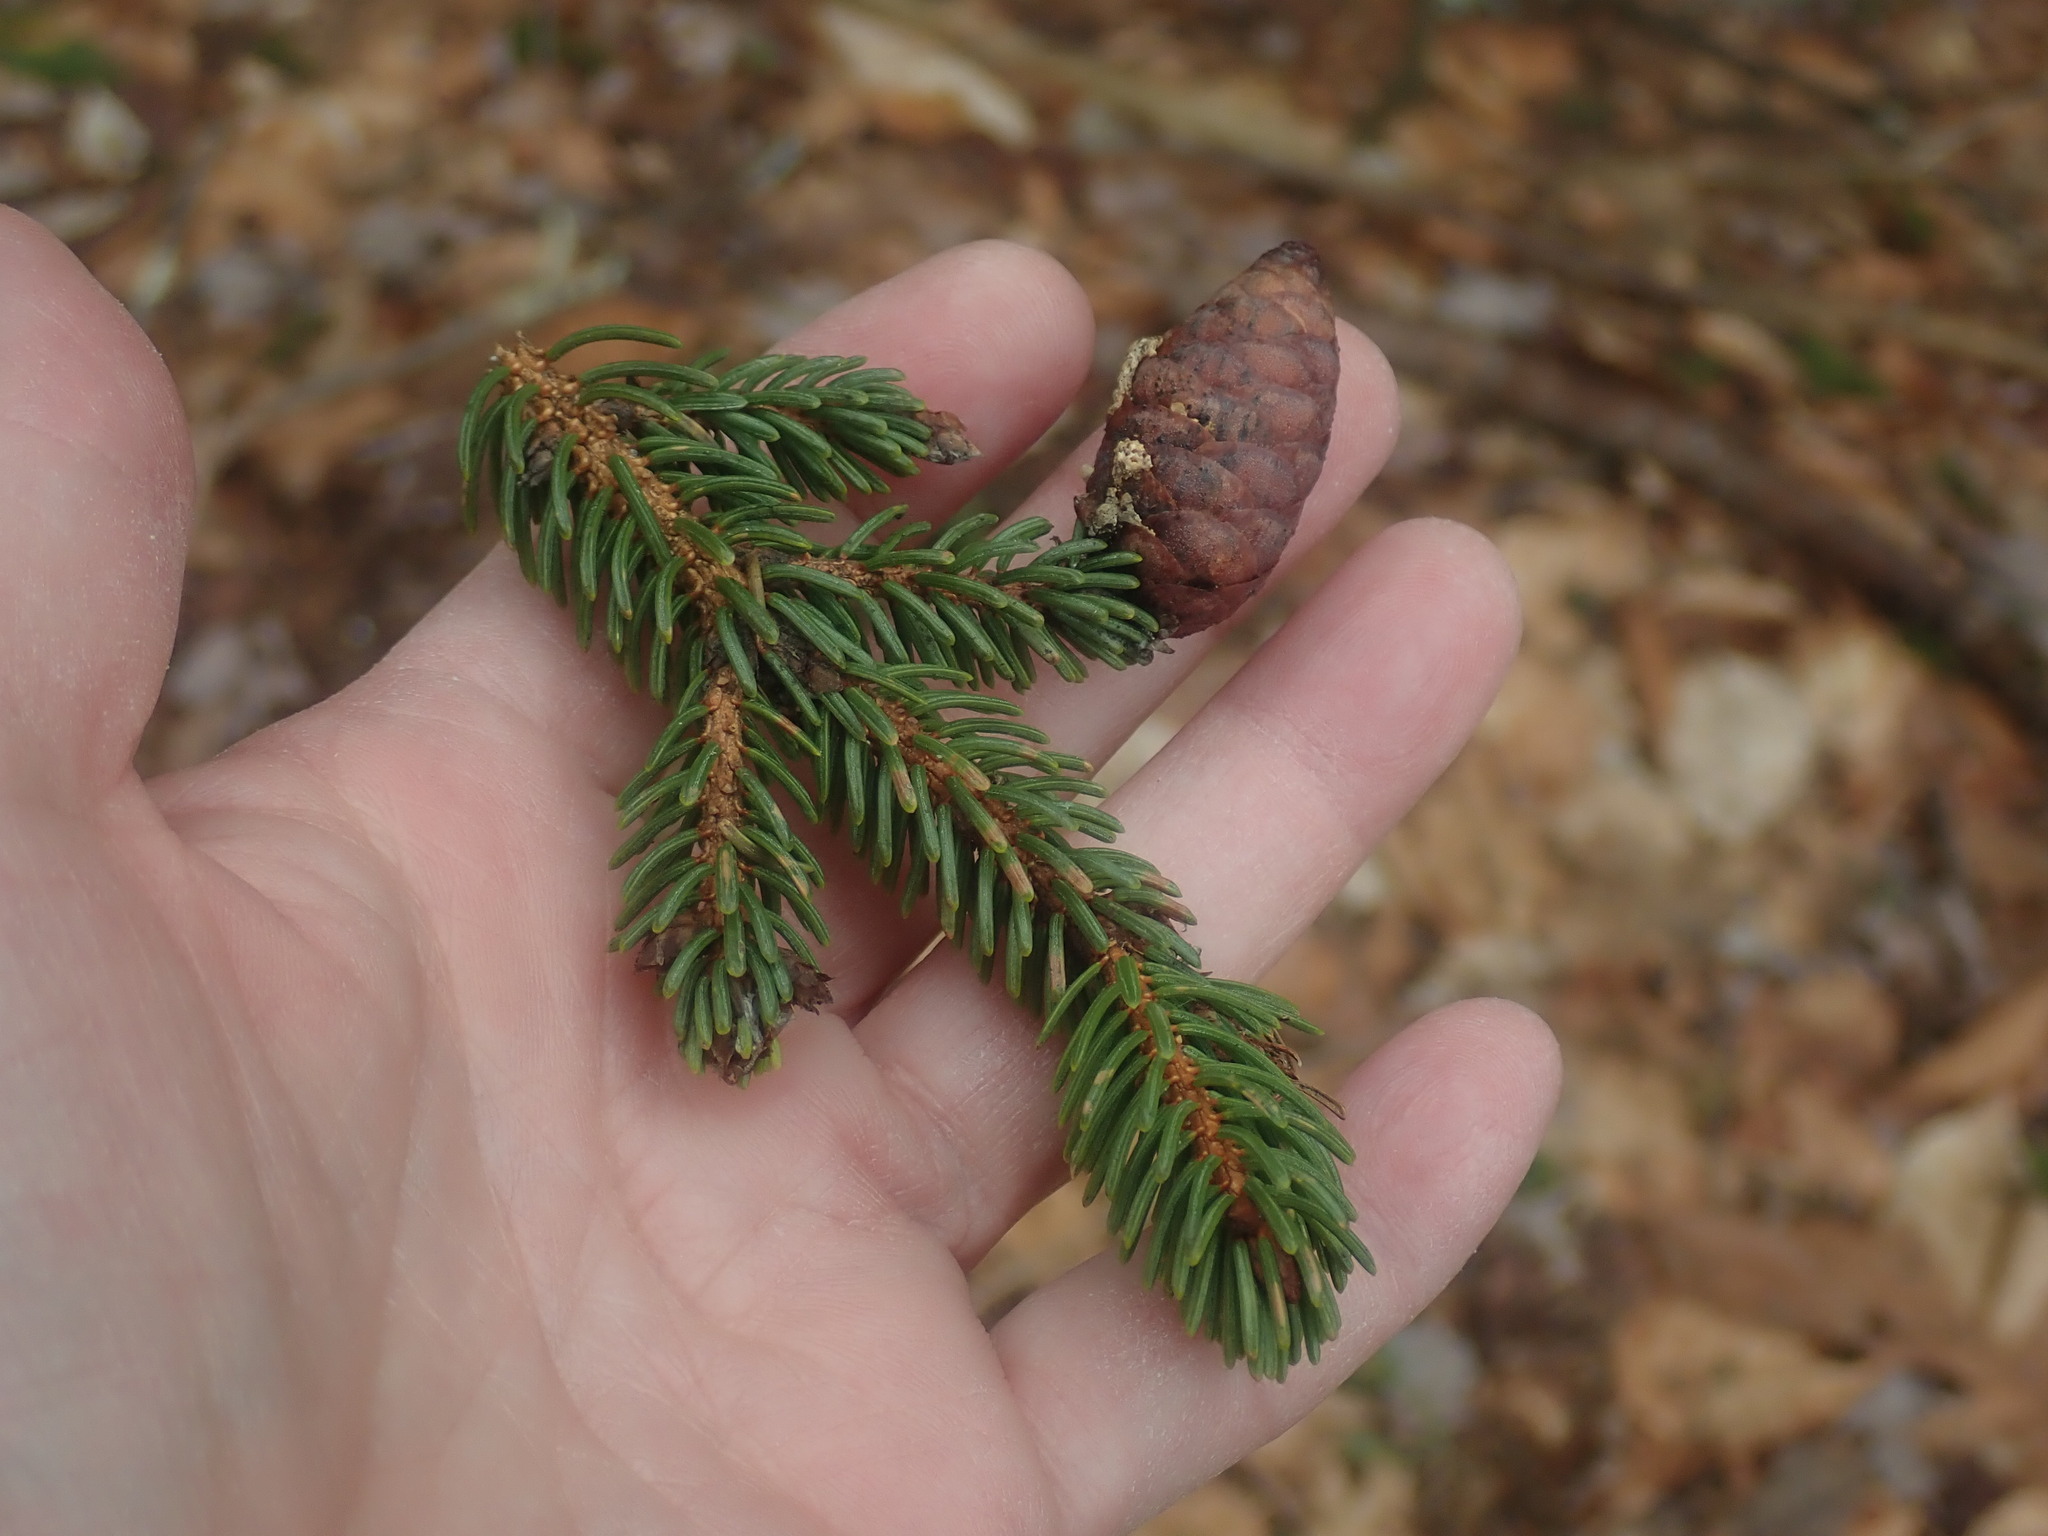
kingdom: Plantae
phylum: Tracheophyta
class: Pinopsida
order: Pinales
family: Pinaceae
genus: Picea
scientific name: Picea rubens
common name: Red spruce
